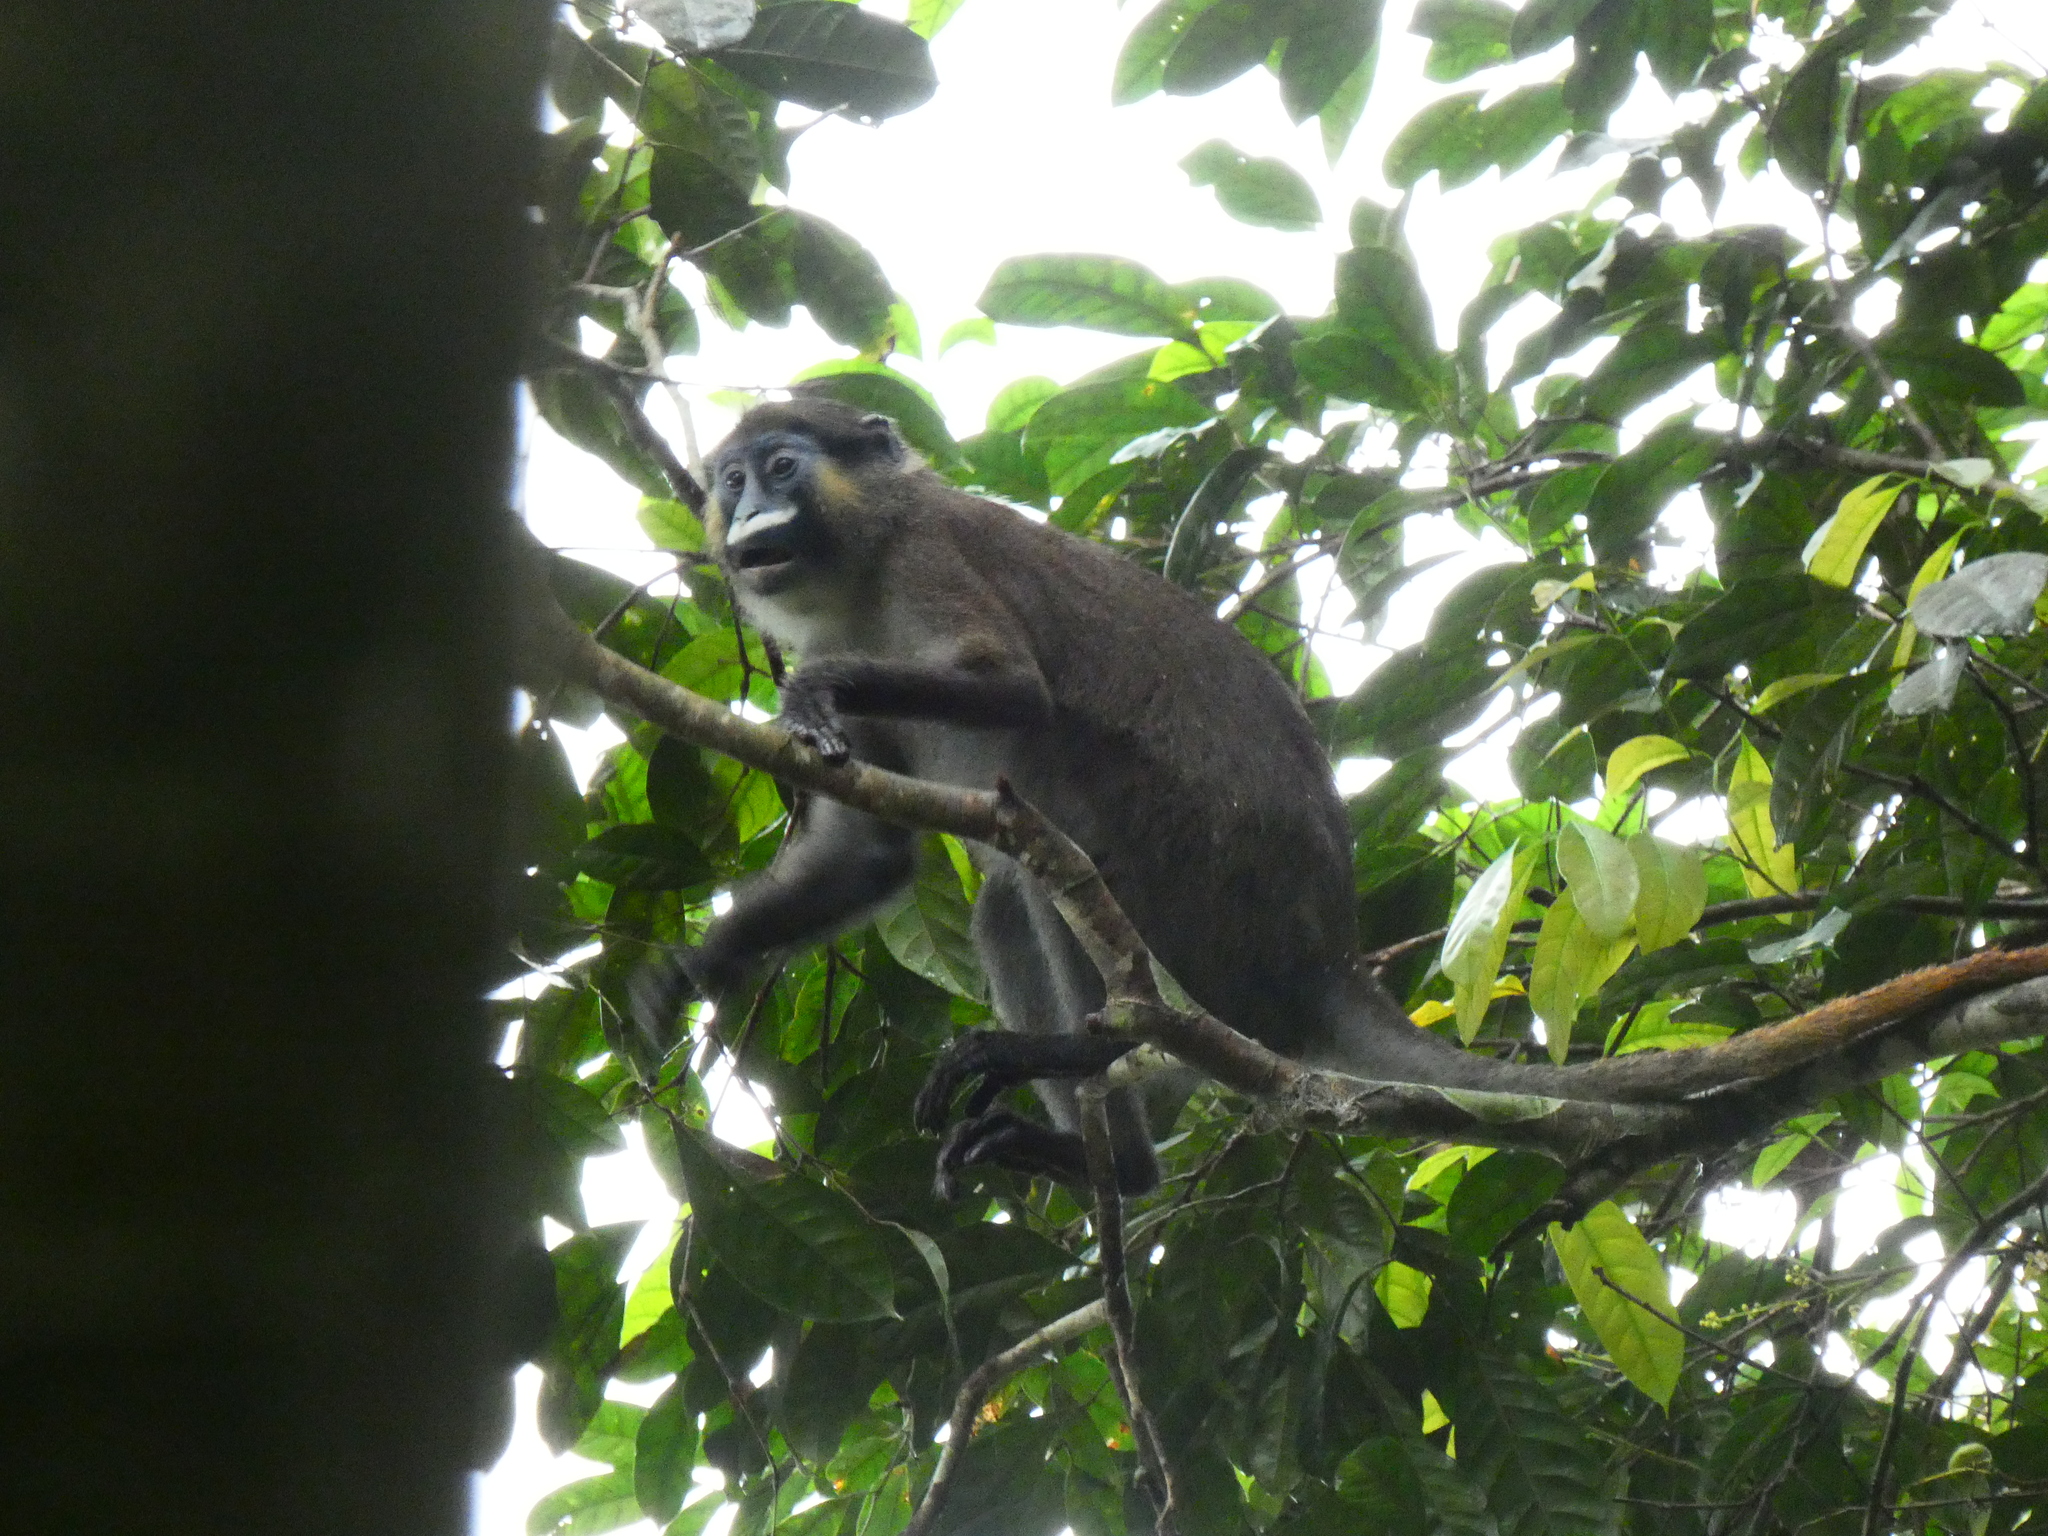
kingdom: Animalia
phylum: Chordata
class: Mammalia
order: Primates
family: Cercopithecidae
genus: Cercopithecus
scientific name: Cercopithecus cephus
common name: Moustached guenon
